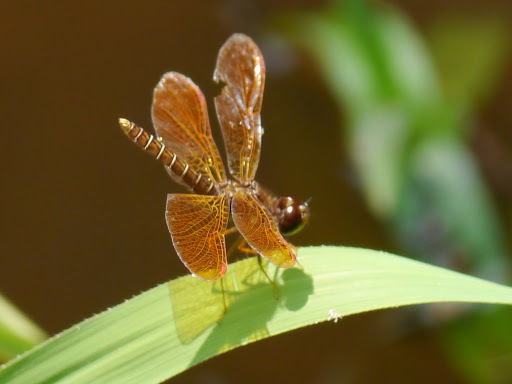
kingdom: Animalia
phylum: Arthropoda
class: Insecta
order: Odonata
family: Libellulidae
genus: Perithemis
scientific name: Perithemis tenera
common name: Eastern amberwing
